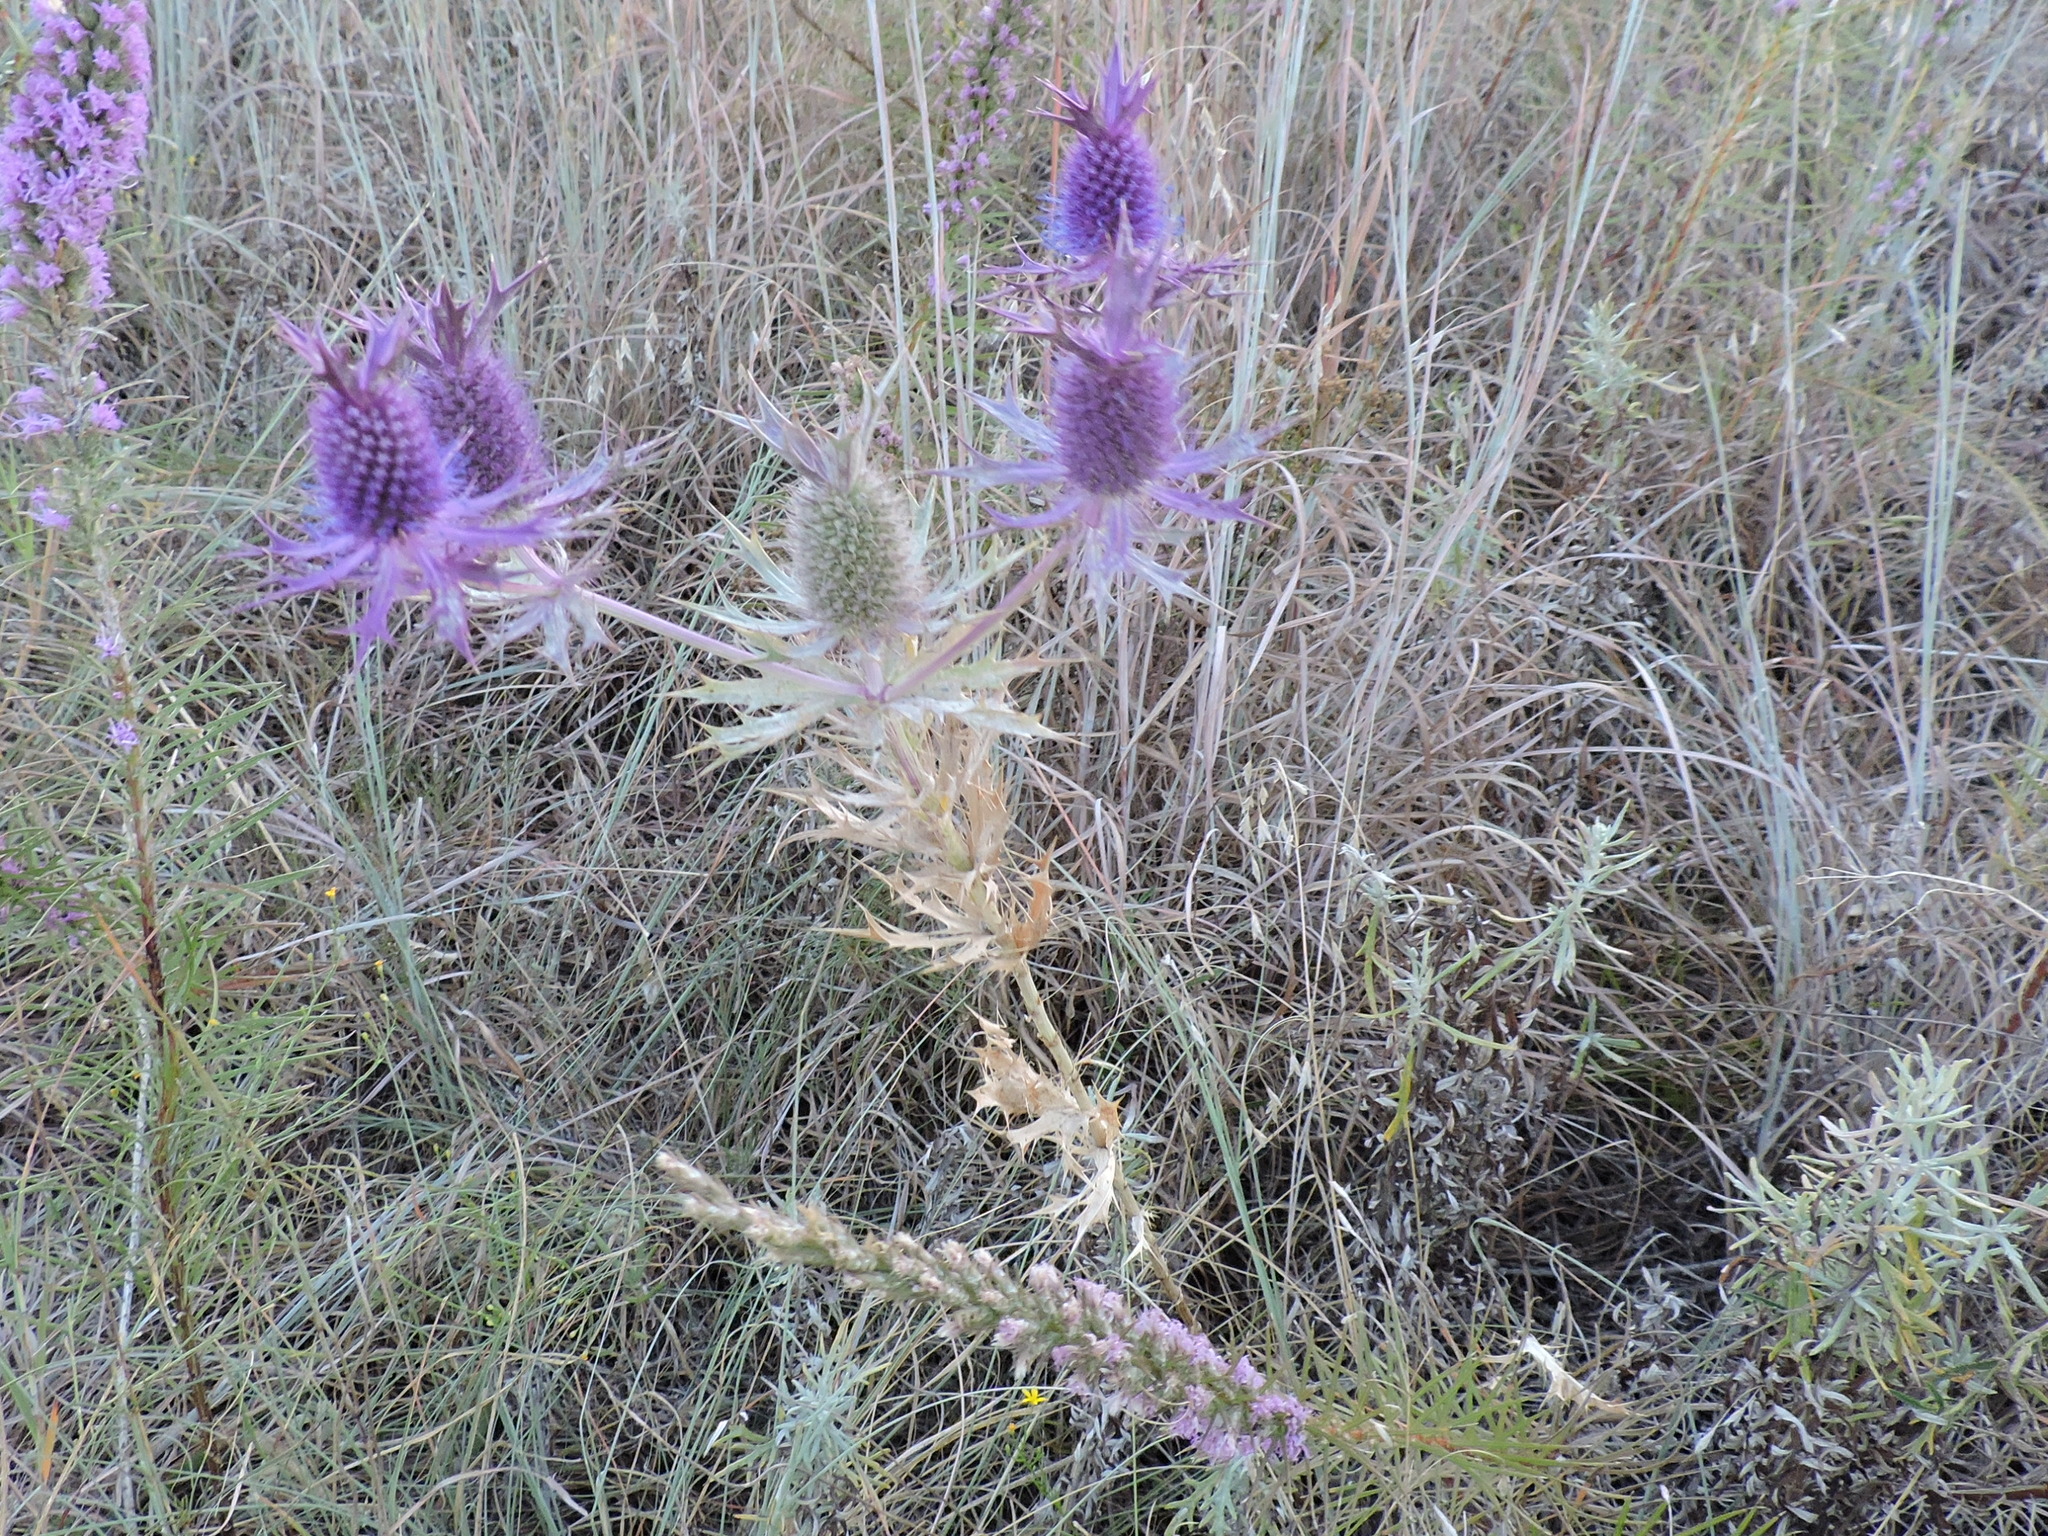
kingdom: Plantae
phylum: Tracheophyta
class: Magnoliopsida
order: Apiales
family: Apiaceae
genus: Eryngium
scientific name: Eryngium leavenworthii
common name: Leavenworth's eryngo
